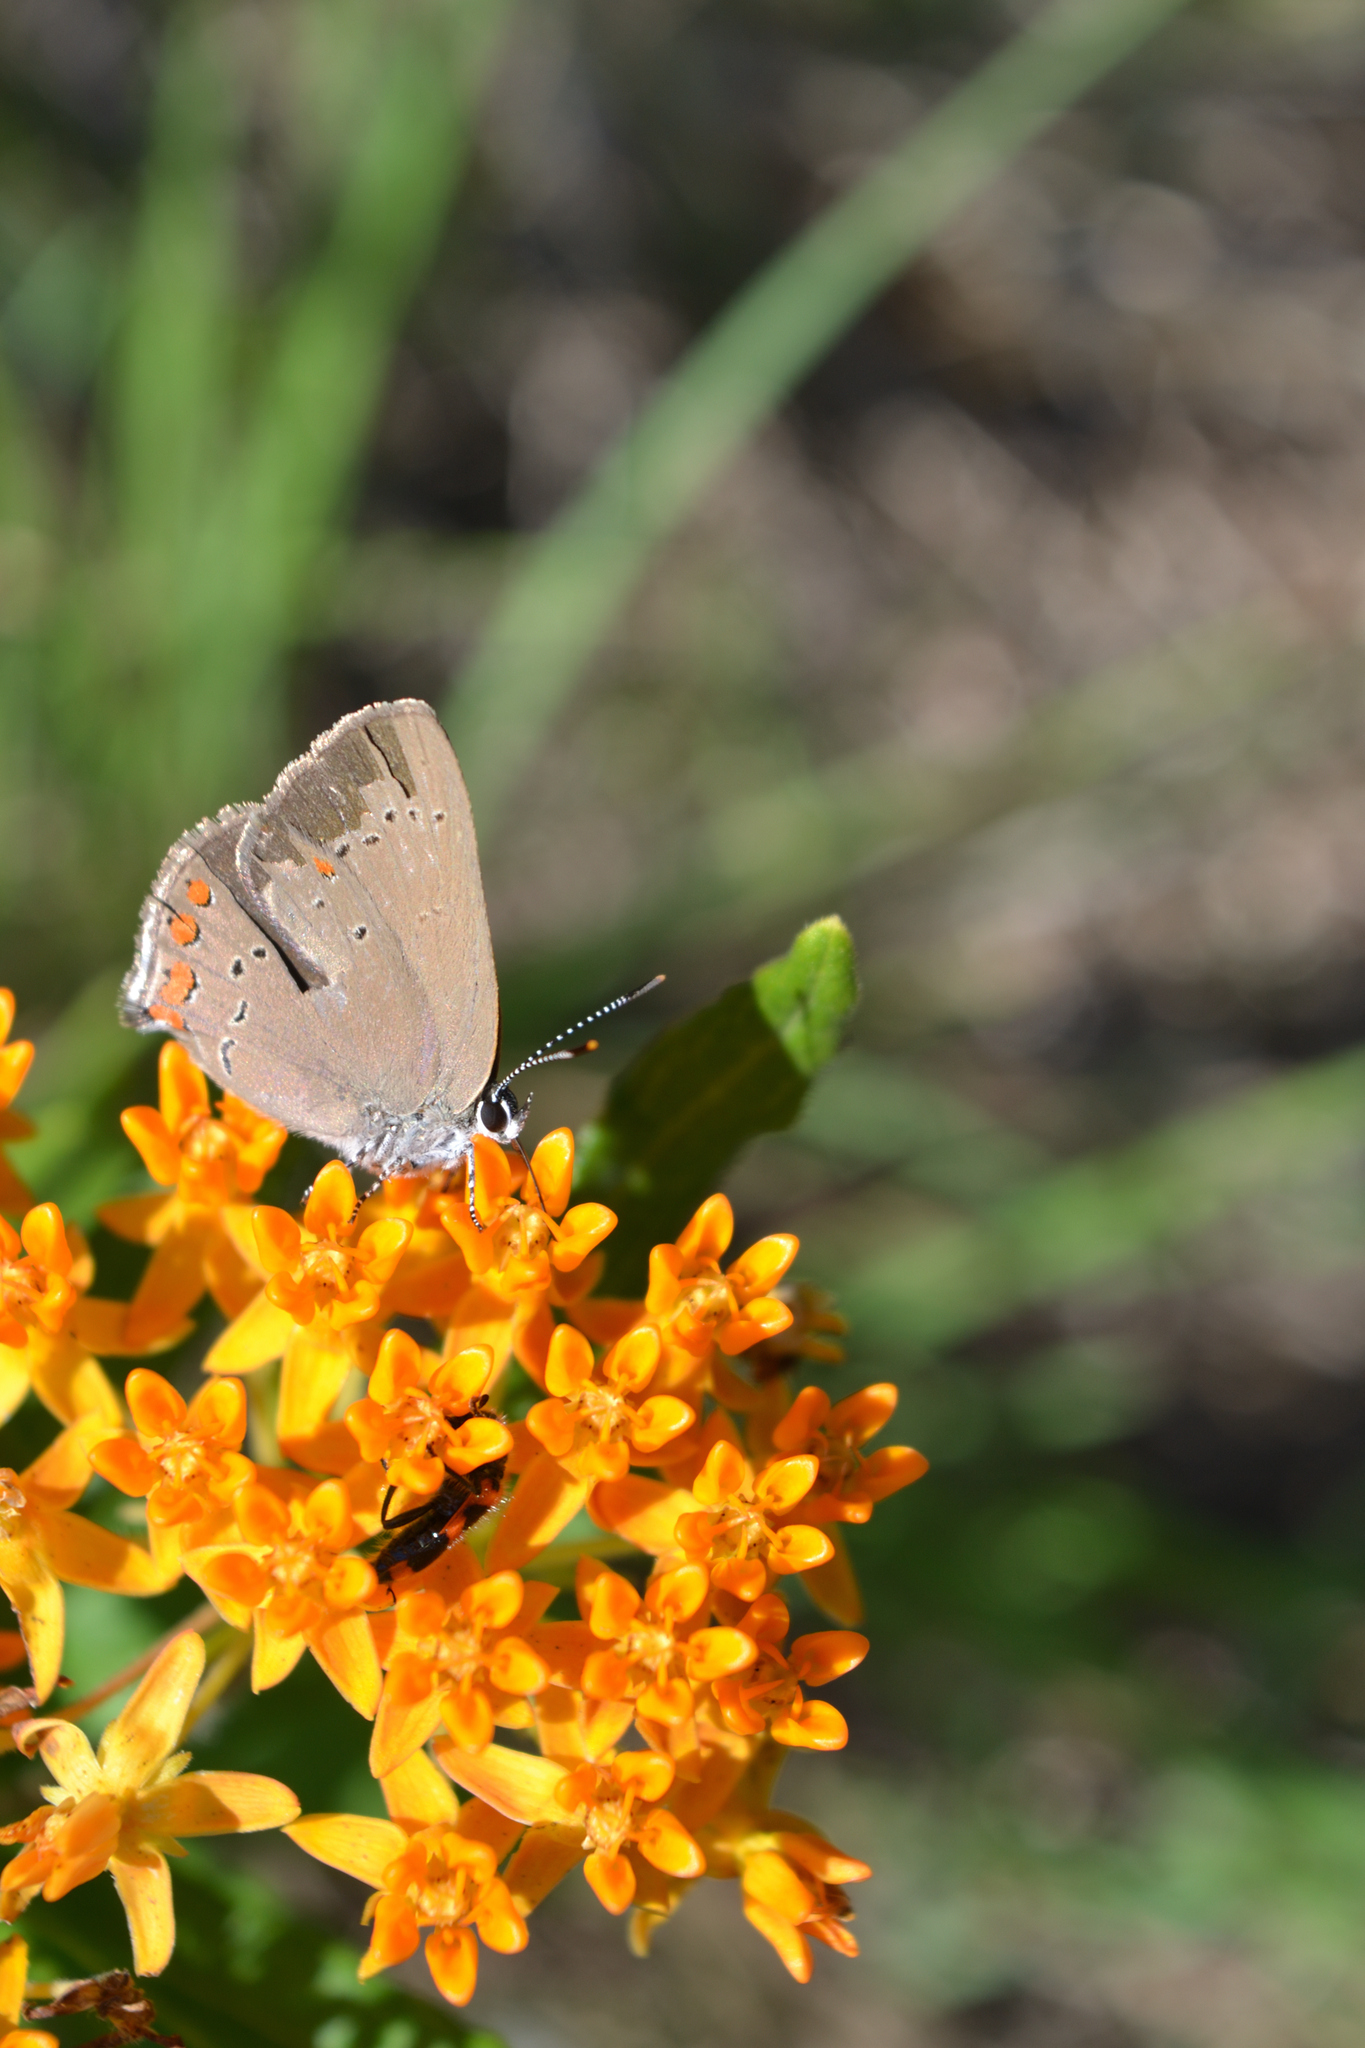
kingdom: Animalia
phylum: Arthropoda
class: Insecta
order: Lepidoptera
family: Lycaenidae
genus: Harkenclenus
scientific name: Harkenclenus titus
